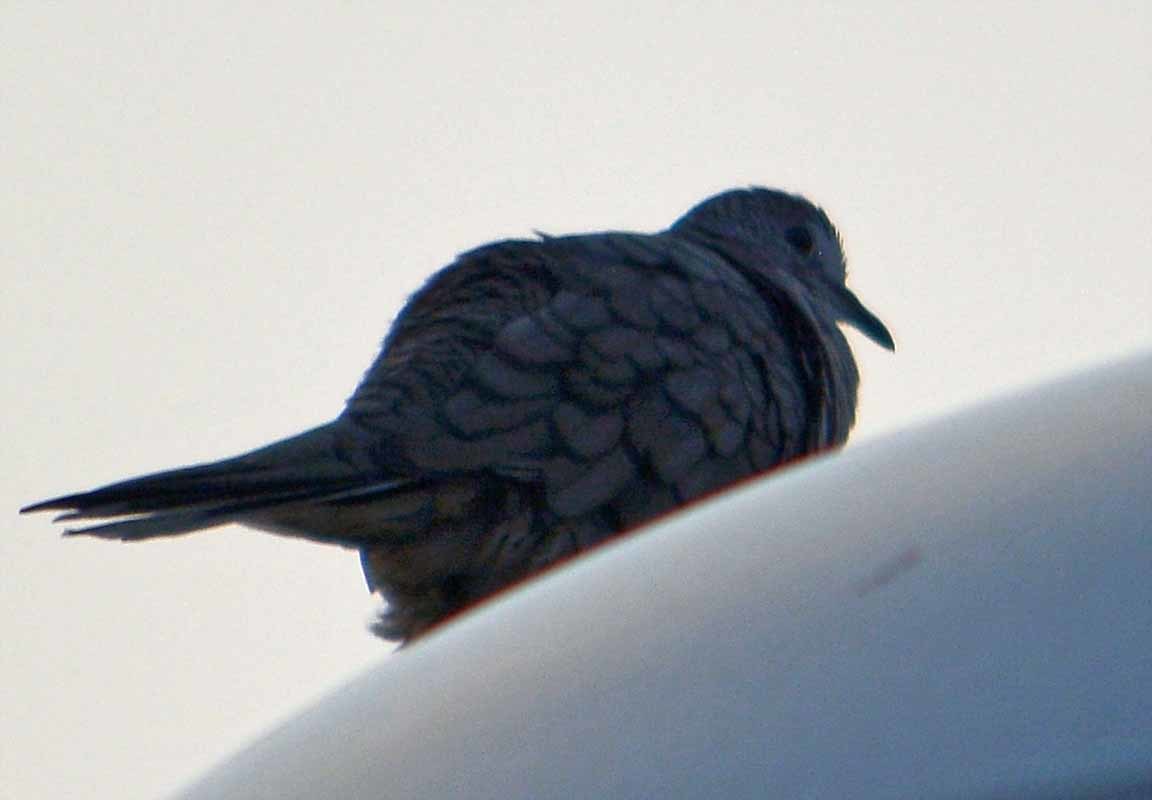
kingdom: Animalia
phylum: Chordata
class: Aves
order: Columbiformes
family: Columbidae
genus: Columbina
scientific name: Columbina inca
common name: Inca dove
